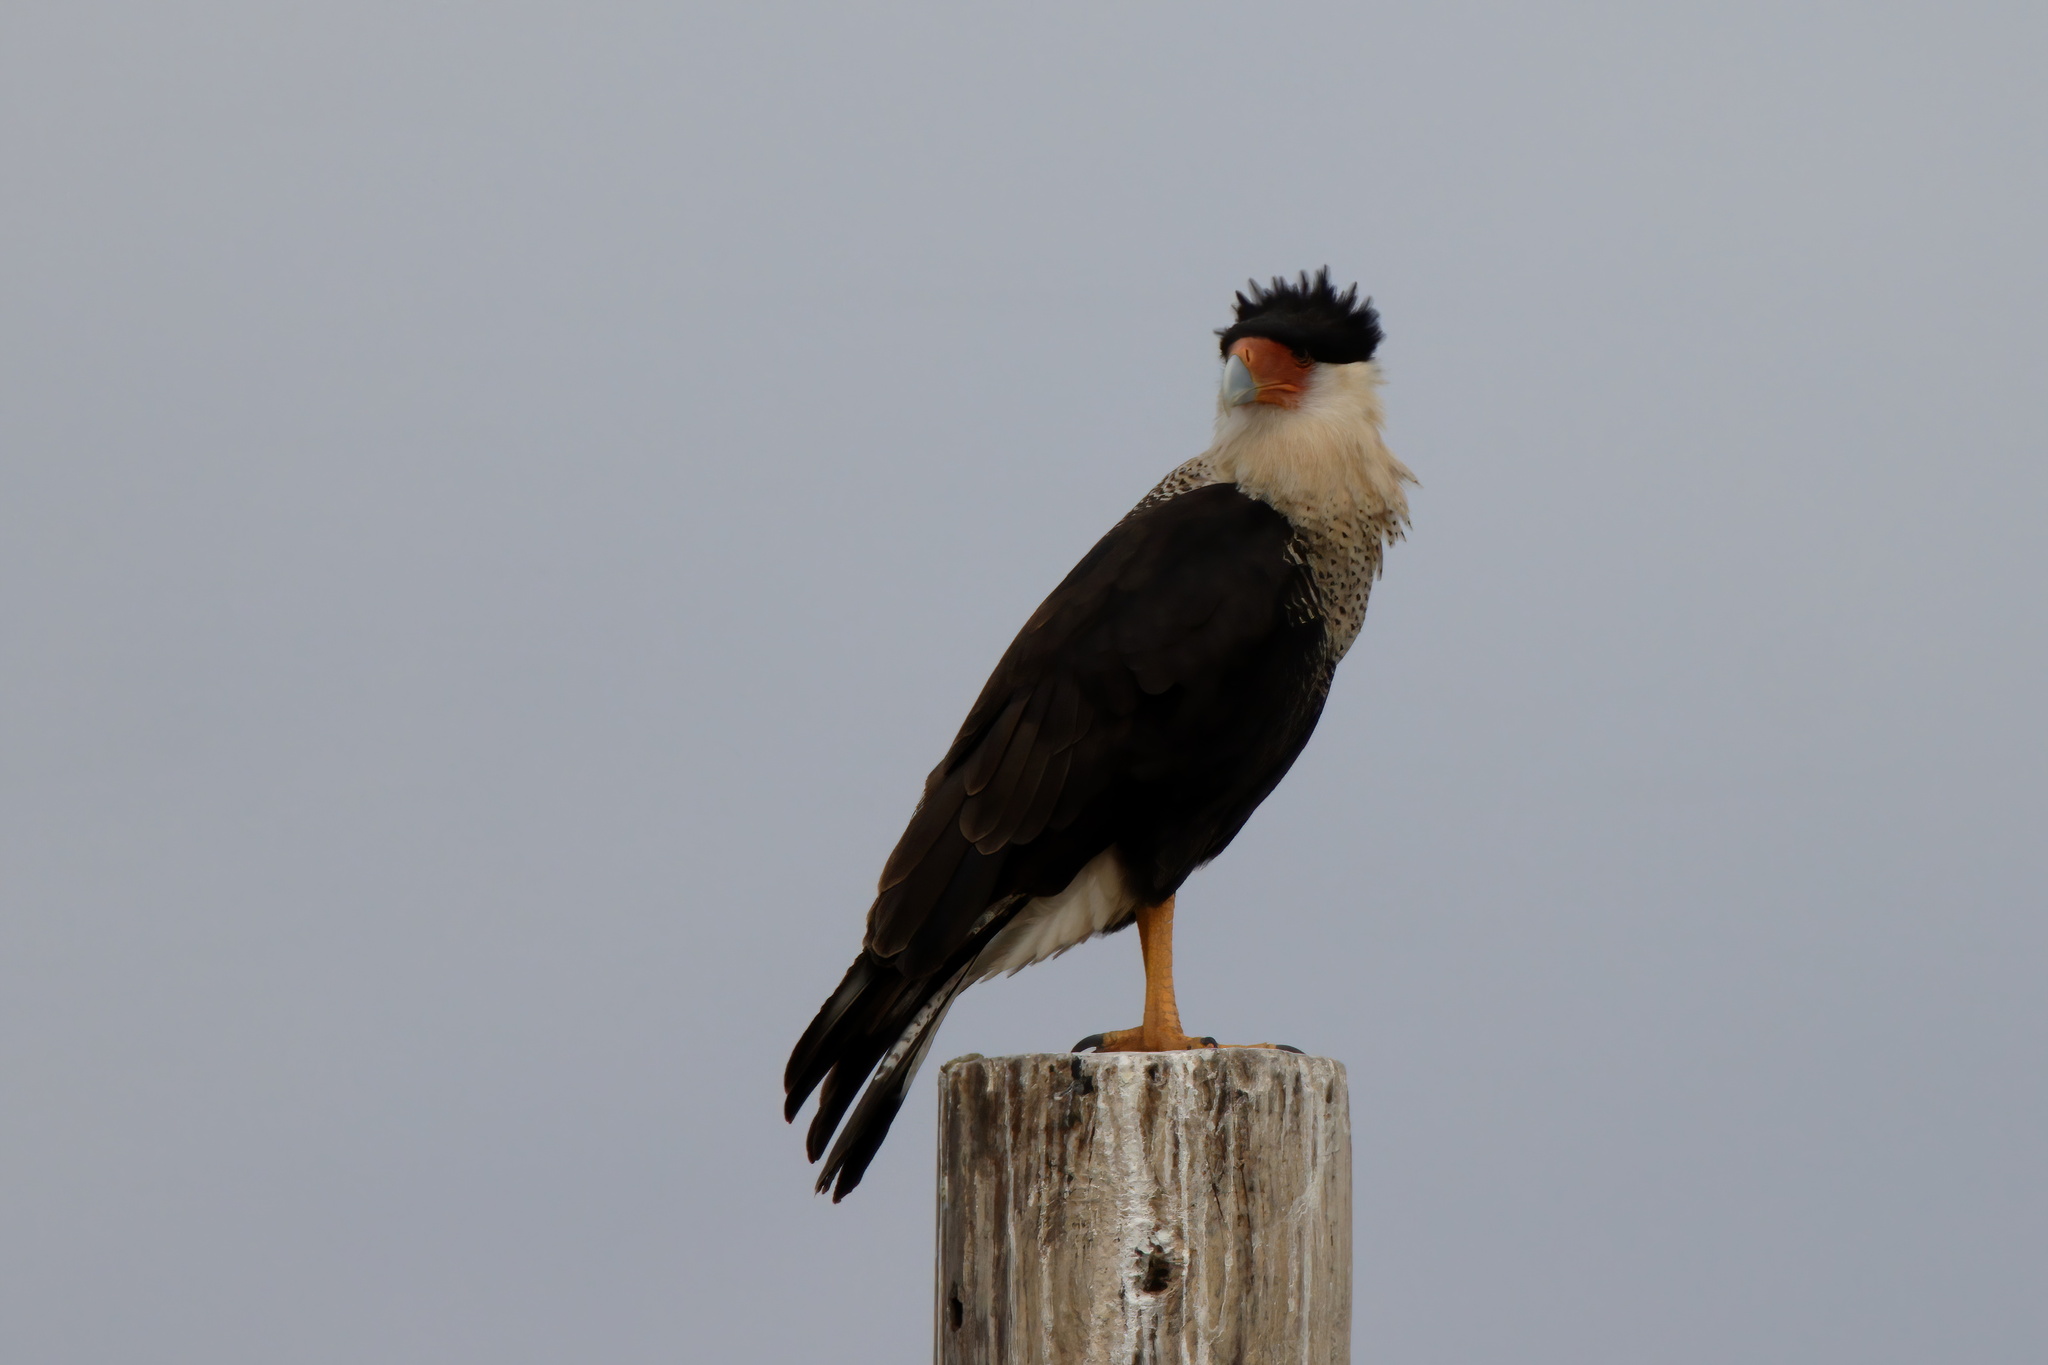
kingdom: Animalia
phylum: Chordata
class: Aves
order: Falconiformes
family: Falconidae
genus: Caracara
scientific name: Caracara plancus
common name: Southern caracara
